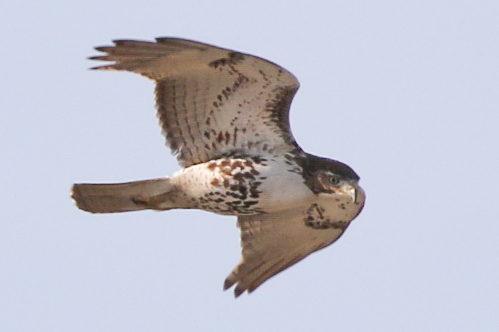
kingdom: Animalia
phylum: Chordata
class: Aves
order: Accipitriformes
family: Accipitridae
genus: Buteo
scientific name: Buteo jamaicensis
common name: Red-tailed hawk
